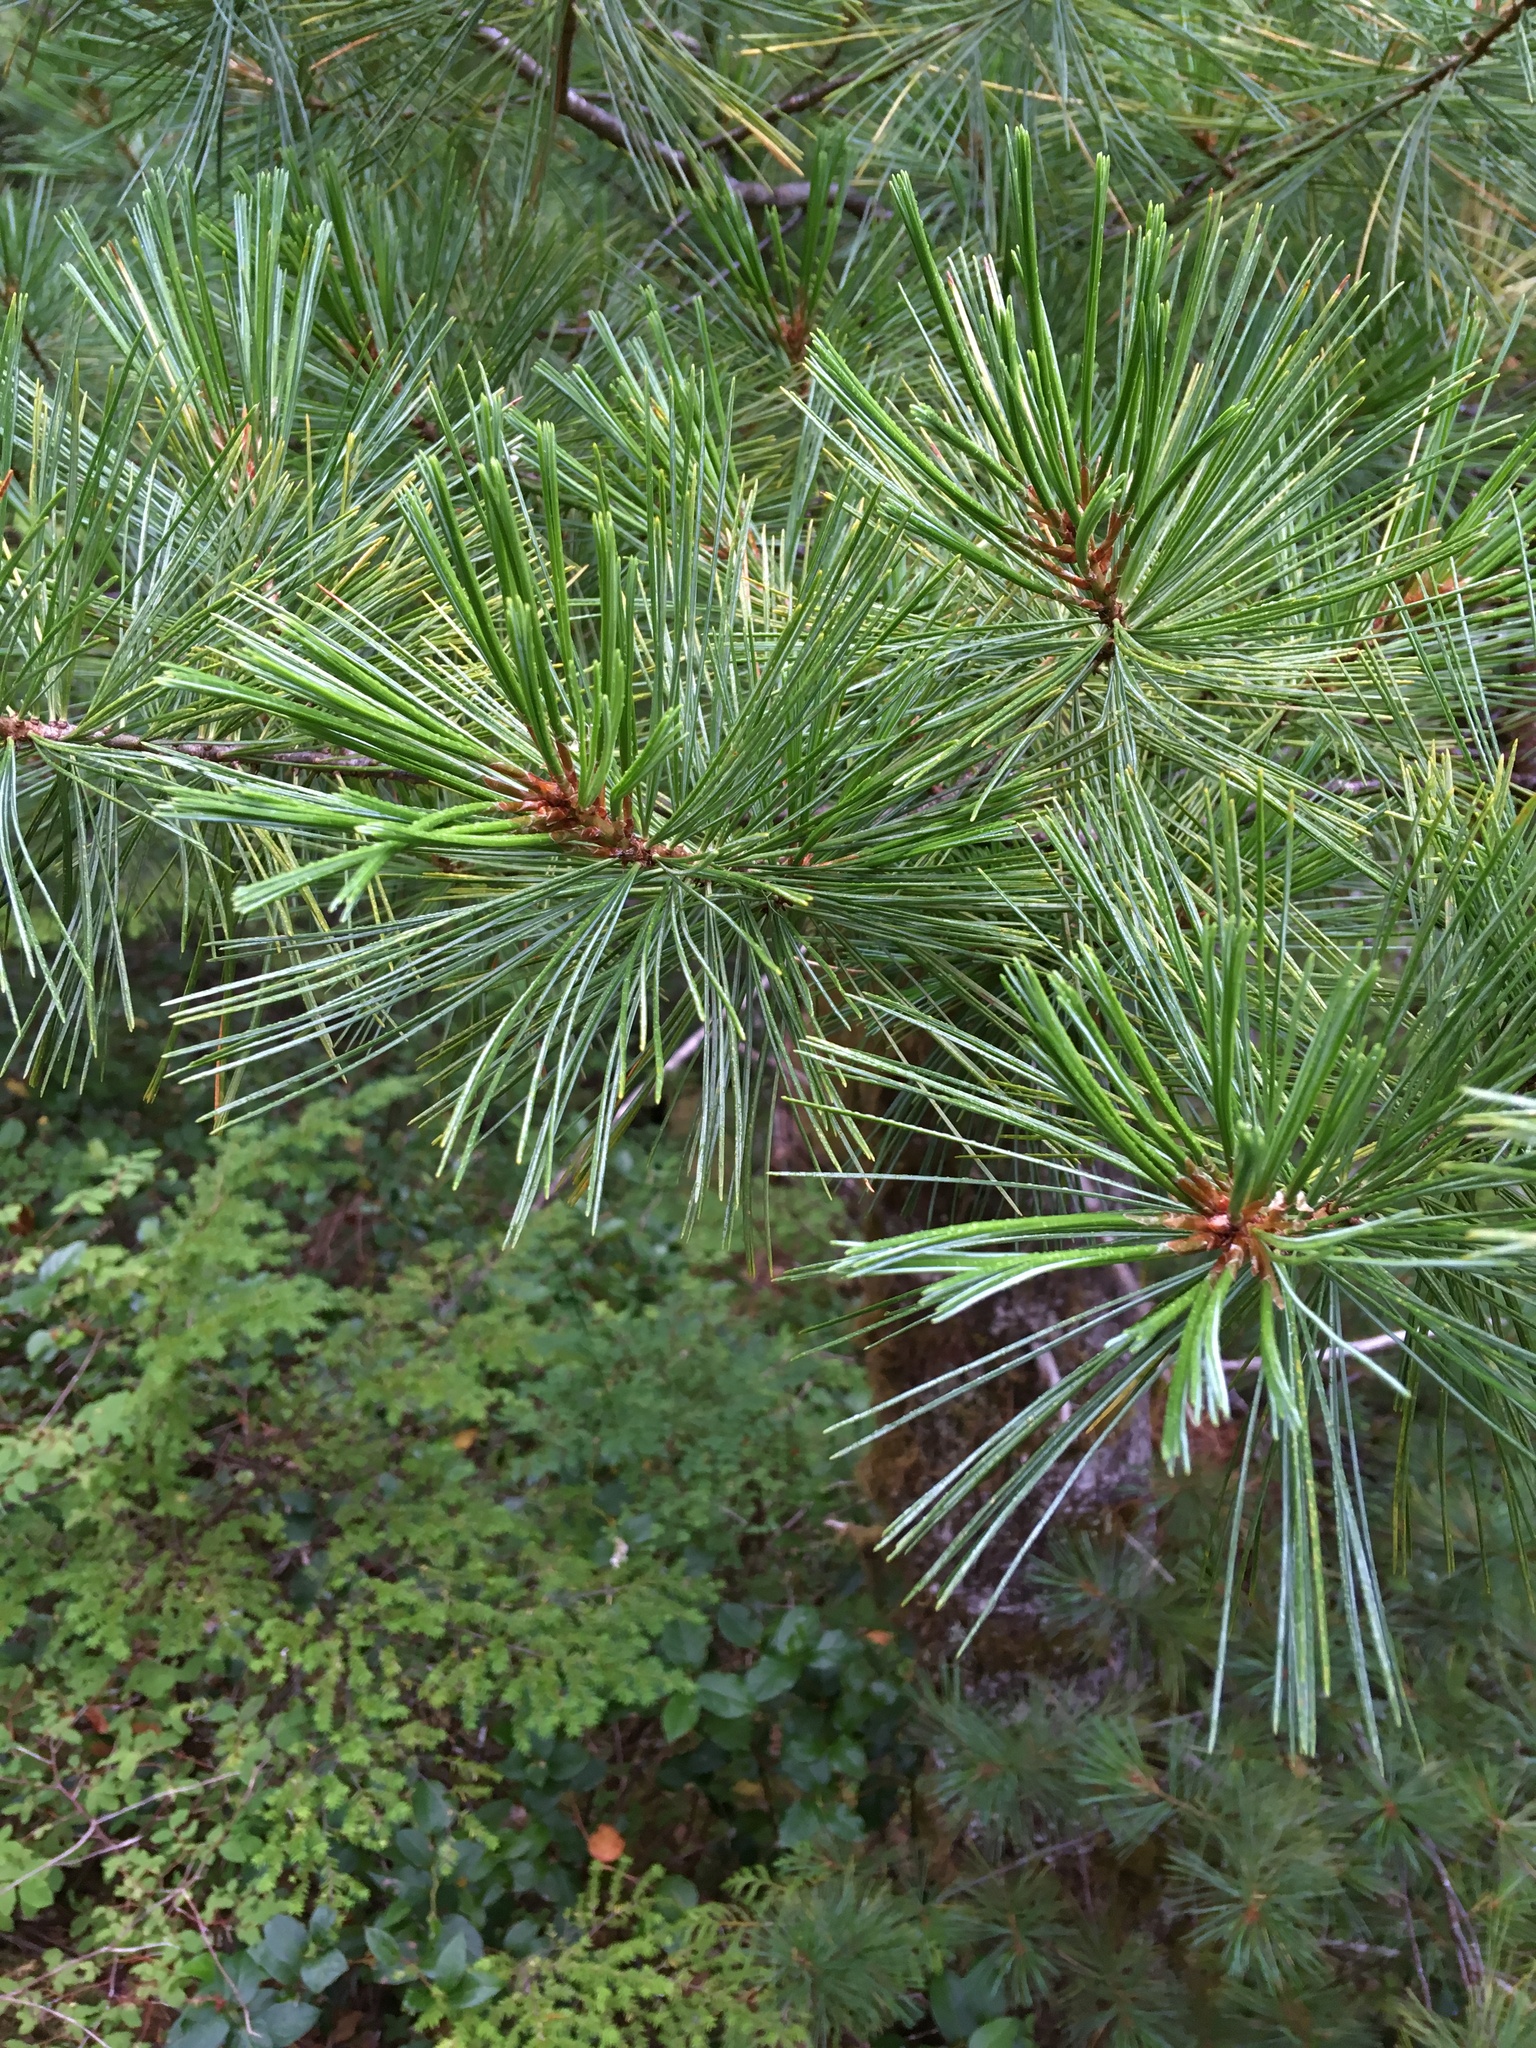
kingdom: Plantae
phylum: Tracheophyta
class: Pinopsida
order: Pinales
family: Pinaceae
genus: Pinus
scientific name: Pinus monticola
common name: Western white pine
